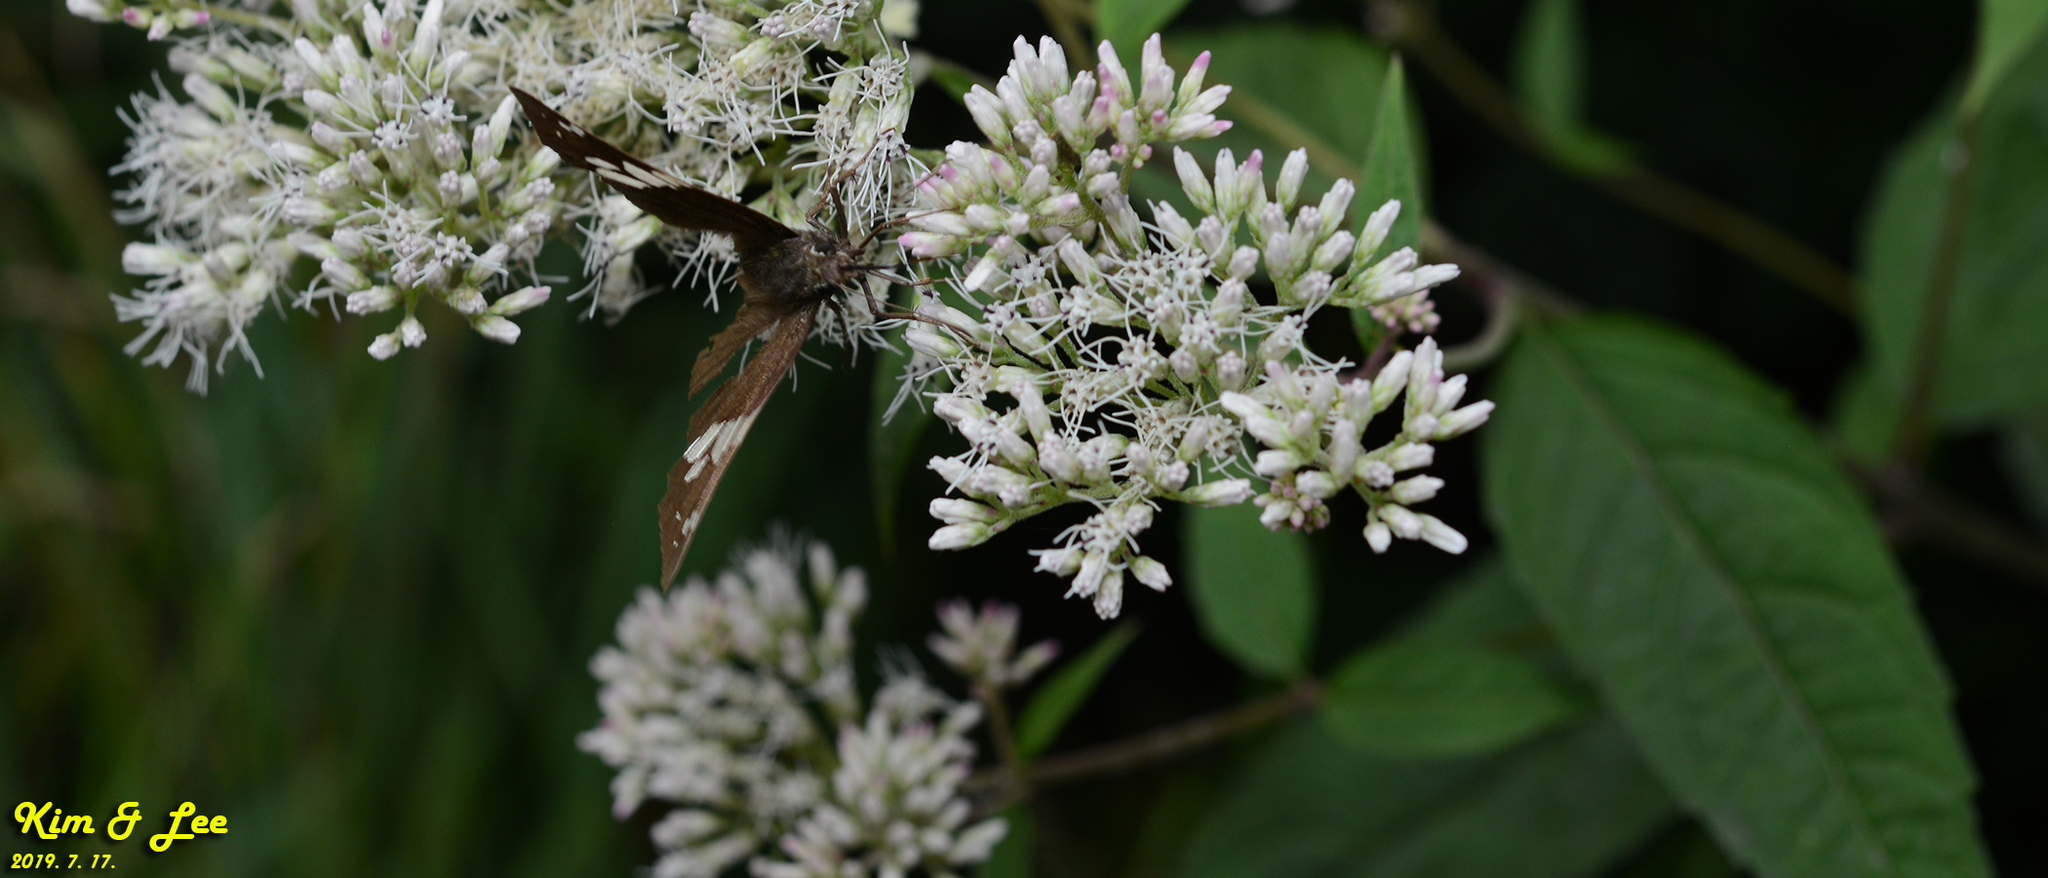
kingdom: Animalia
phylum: Arthropoda
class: Insecta
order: Lepidoptera
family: Hesperiidae
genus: Lobocla
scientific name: Lobocla bifasciatus
